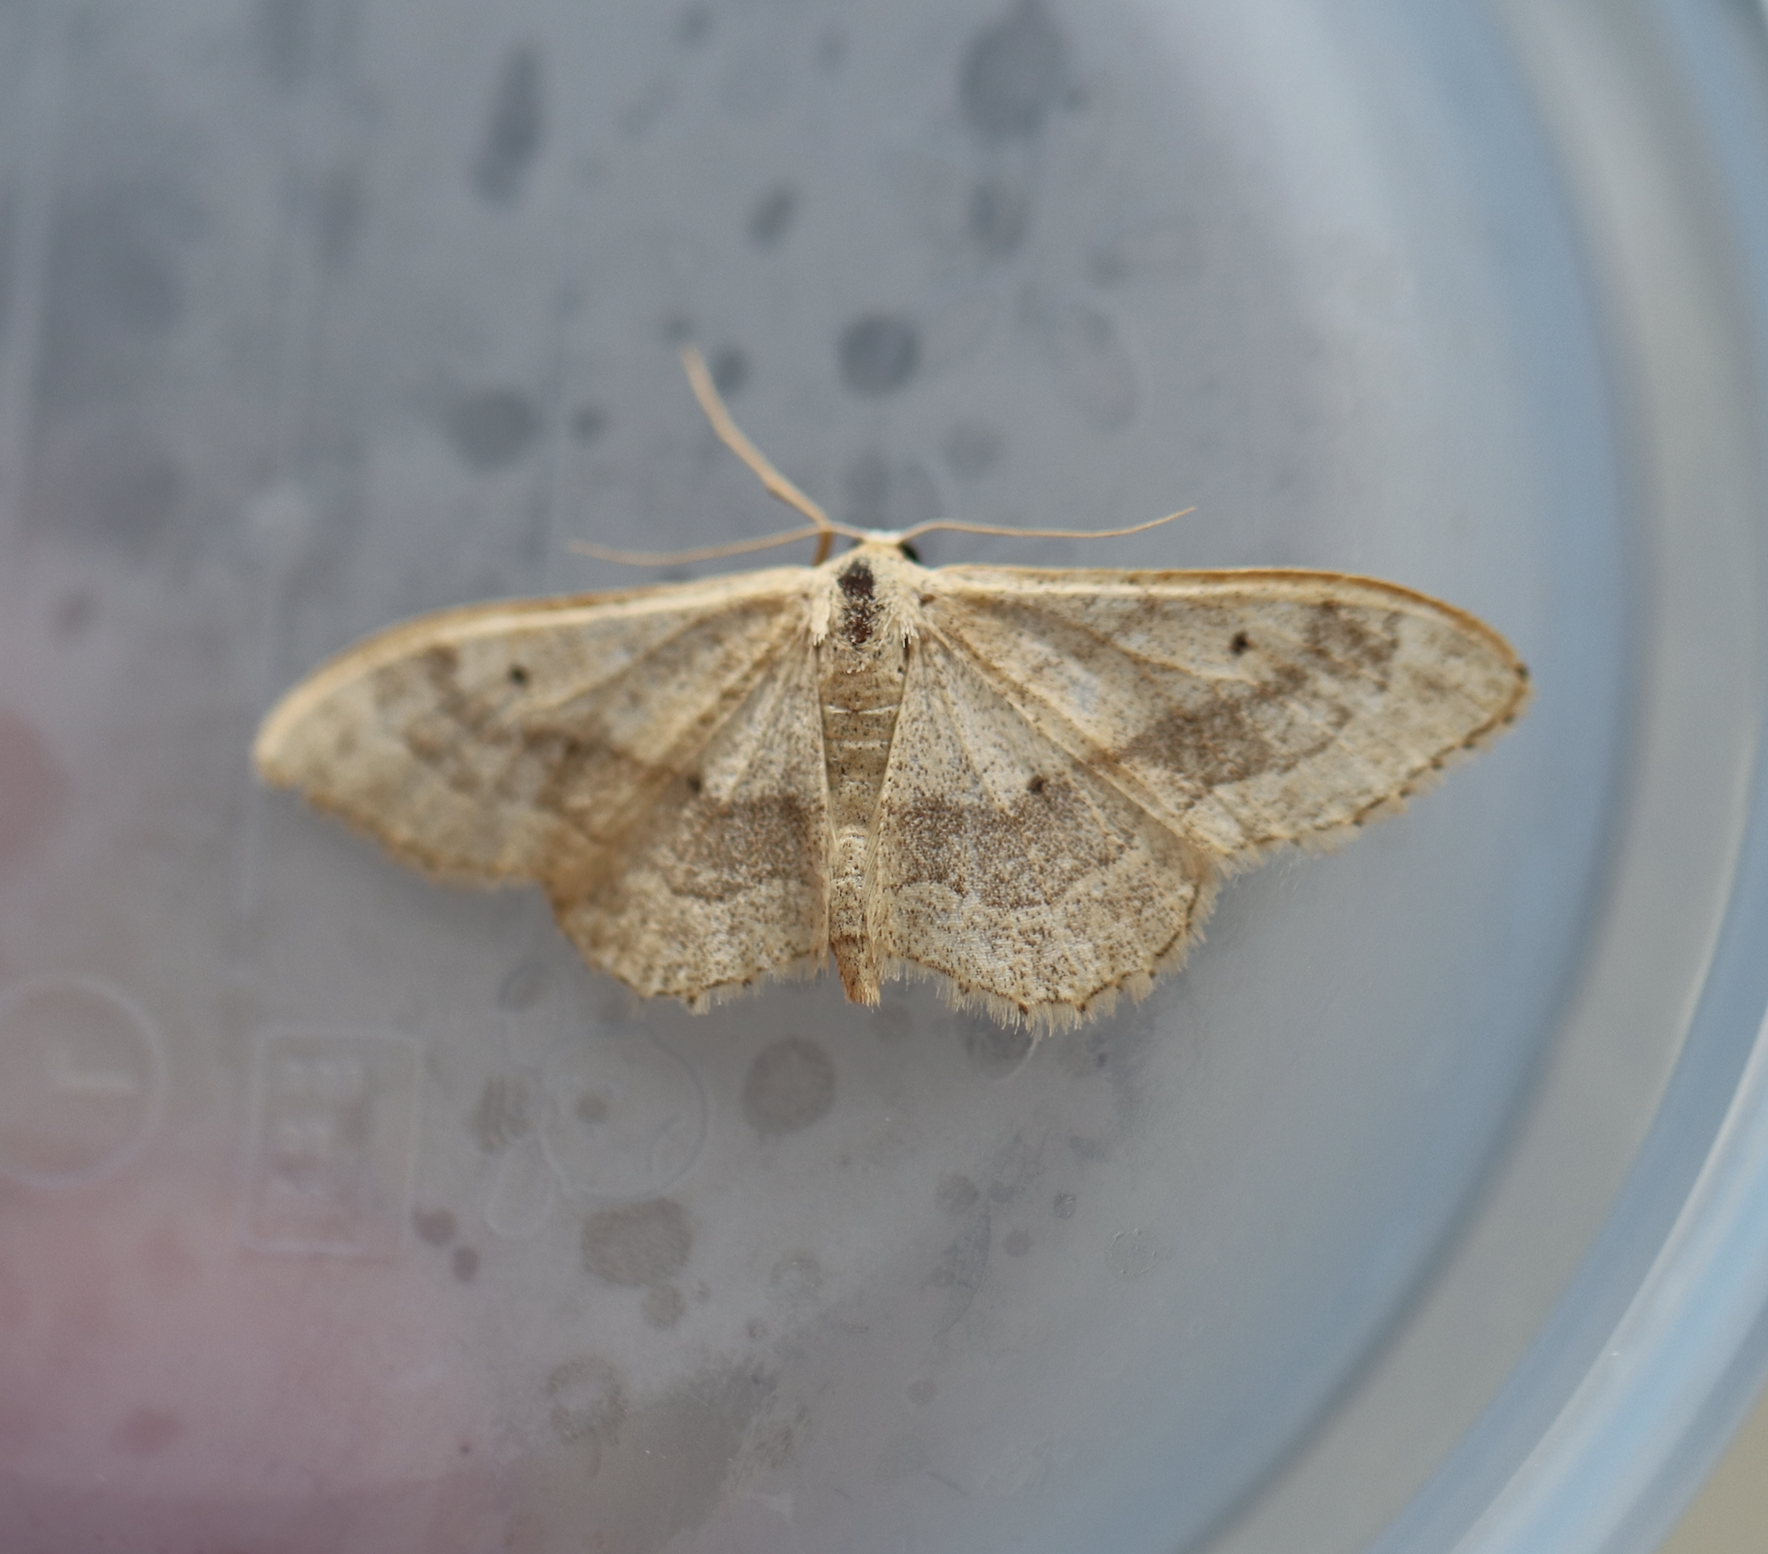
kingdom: Animalia
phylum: Arthropoda
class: Insecta
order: Lepidoptera
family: Geometridae
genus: Idaea
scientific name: Idaea aversata
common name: Riband wave
